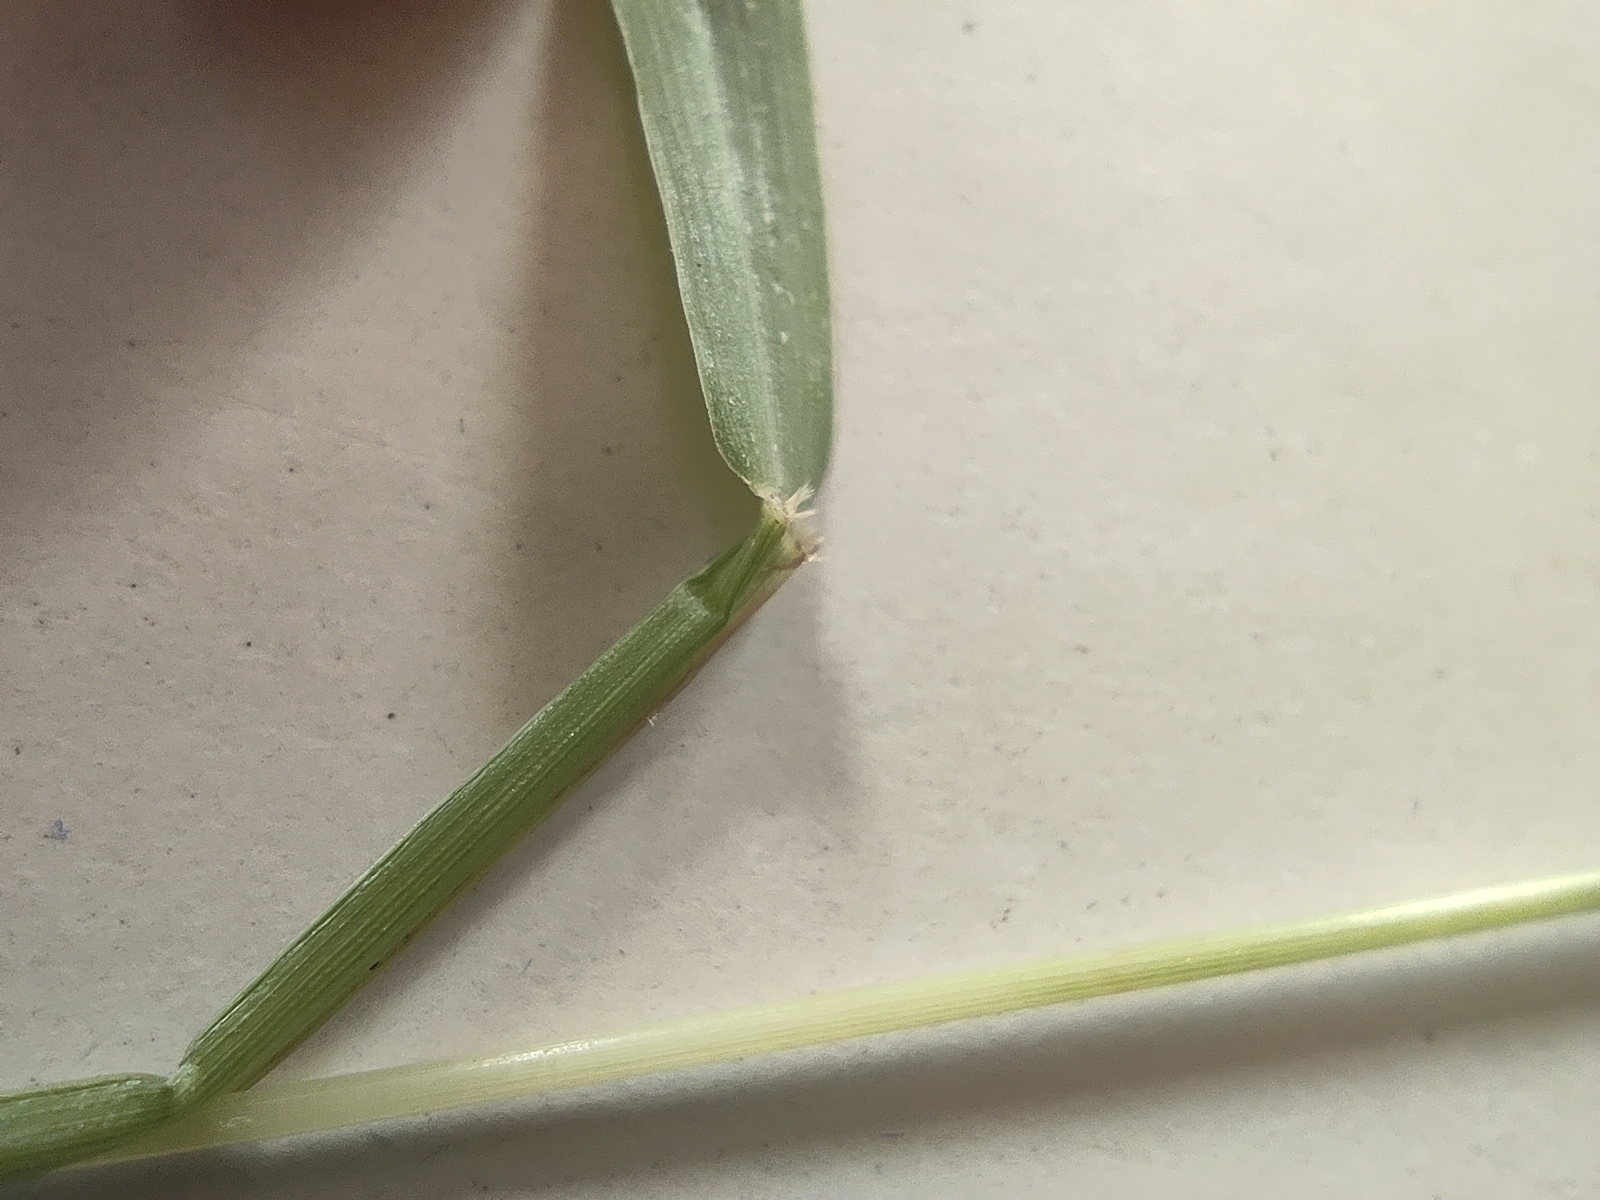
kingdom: Plantae
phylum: Tracheophyta
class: Liliopsida
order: Poales
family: Poaceae
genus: Setaria
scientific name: Setaria pumila
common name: Yellow bristle-grass
